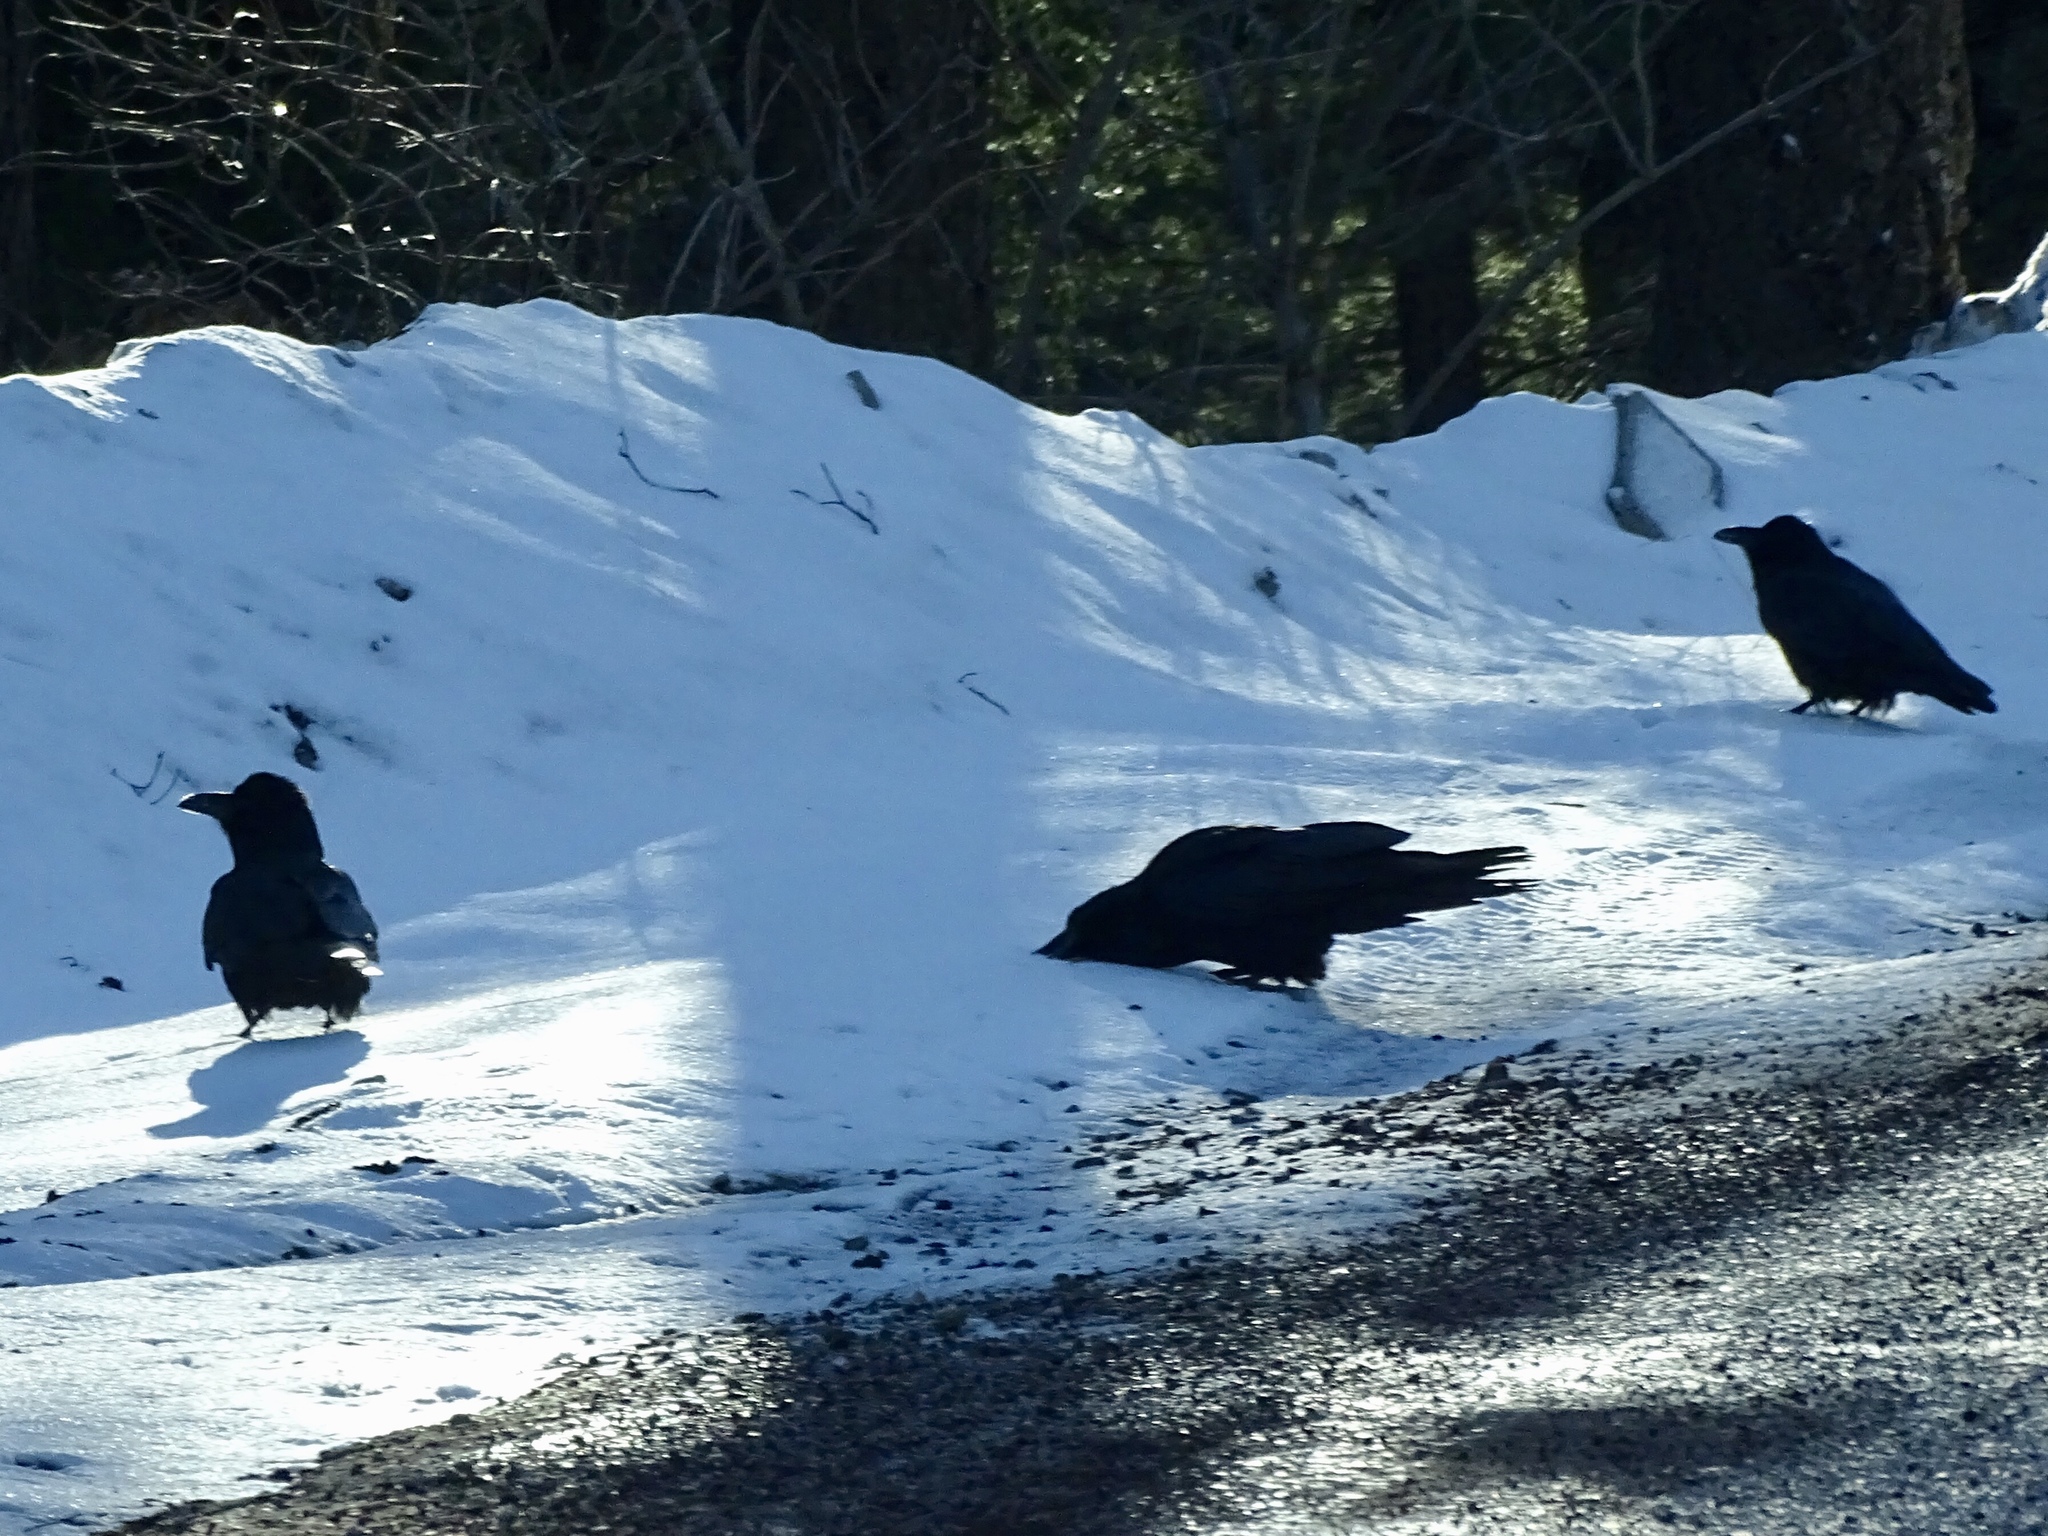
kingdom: Animalia
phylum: Chordata
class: Aves
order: Passeriformes
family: Corvidae
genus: Corvus
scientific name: Corvus corax
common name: Common raven
